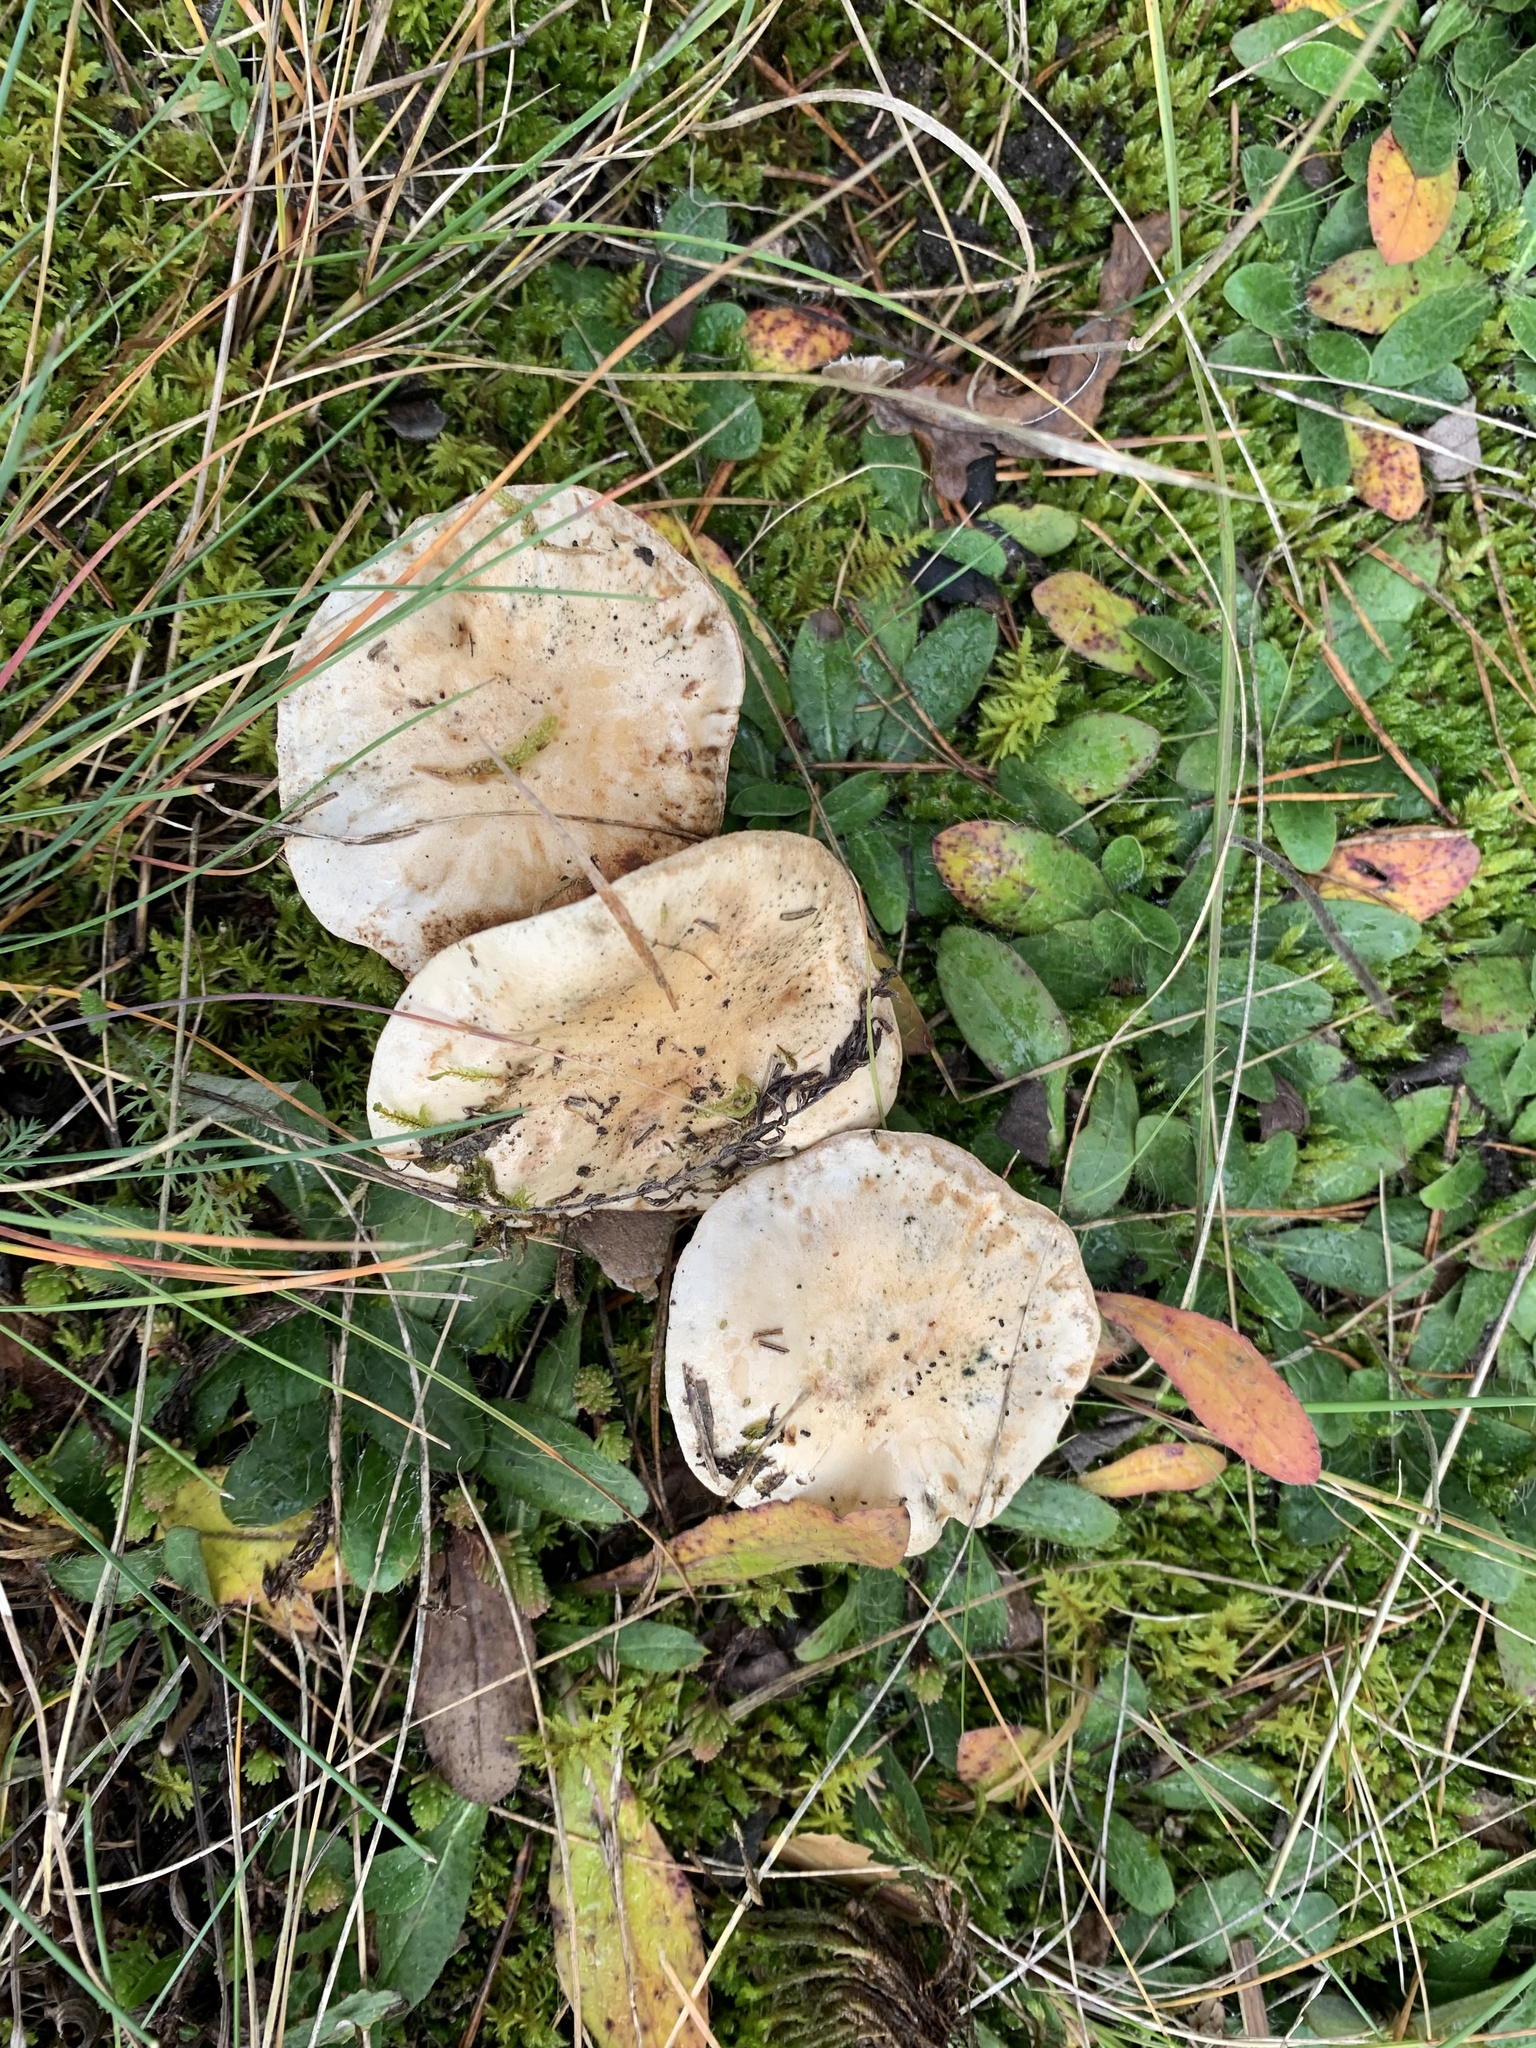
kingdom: Fungi
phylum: Basidiomycota
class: Agaricomycetes
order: Agaricales
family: Hymenogastraceae
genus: Hebeloma
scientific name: Hebeloma crustuliniforme
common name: Poison pie
